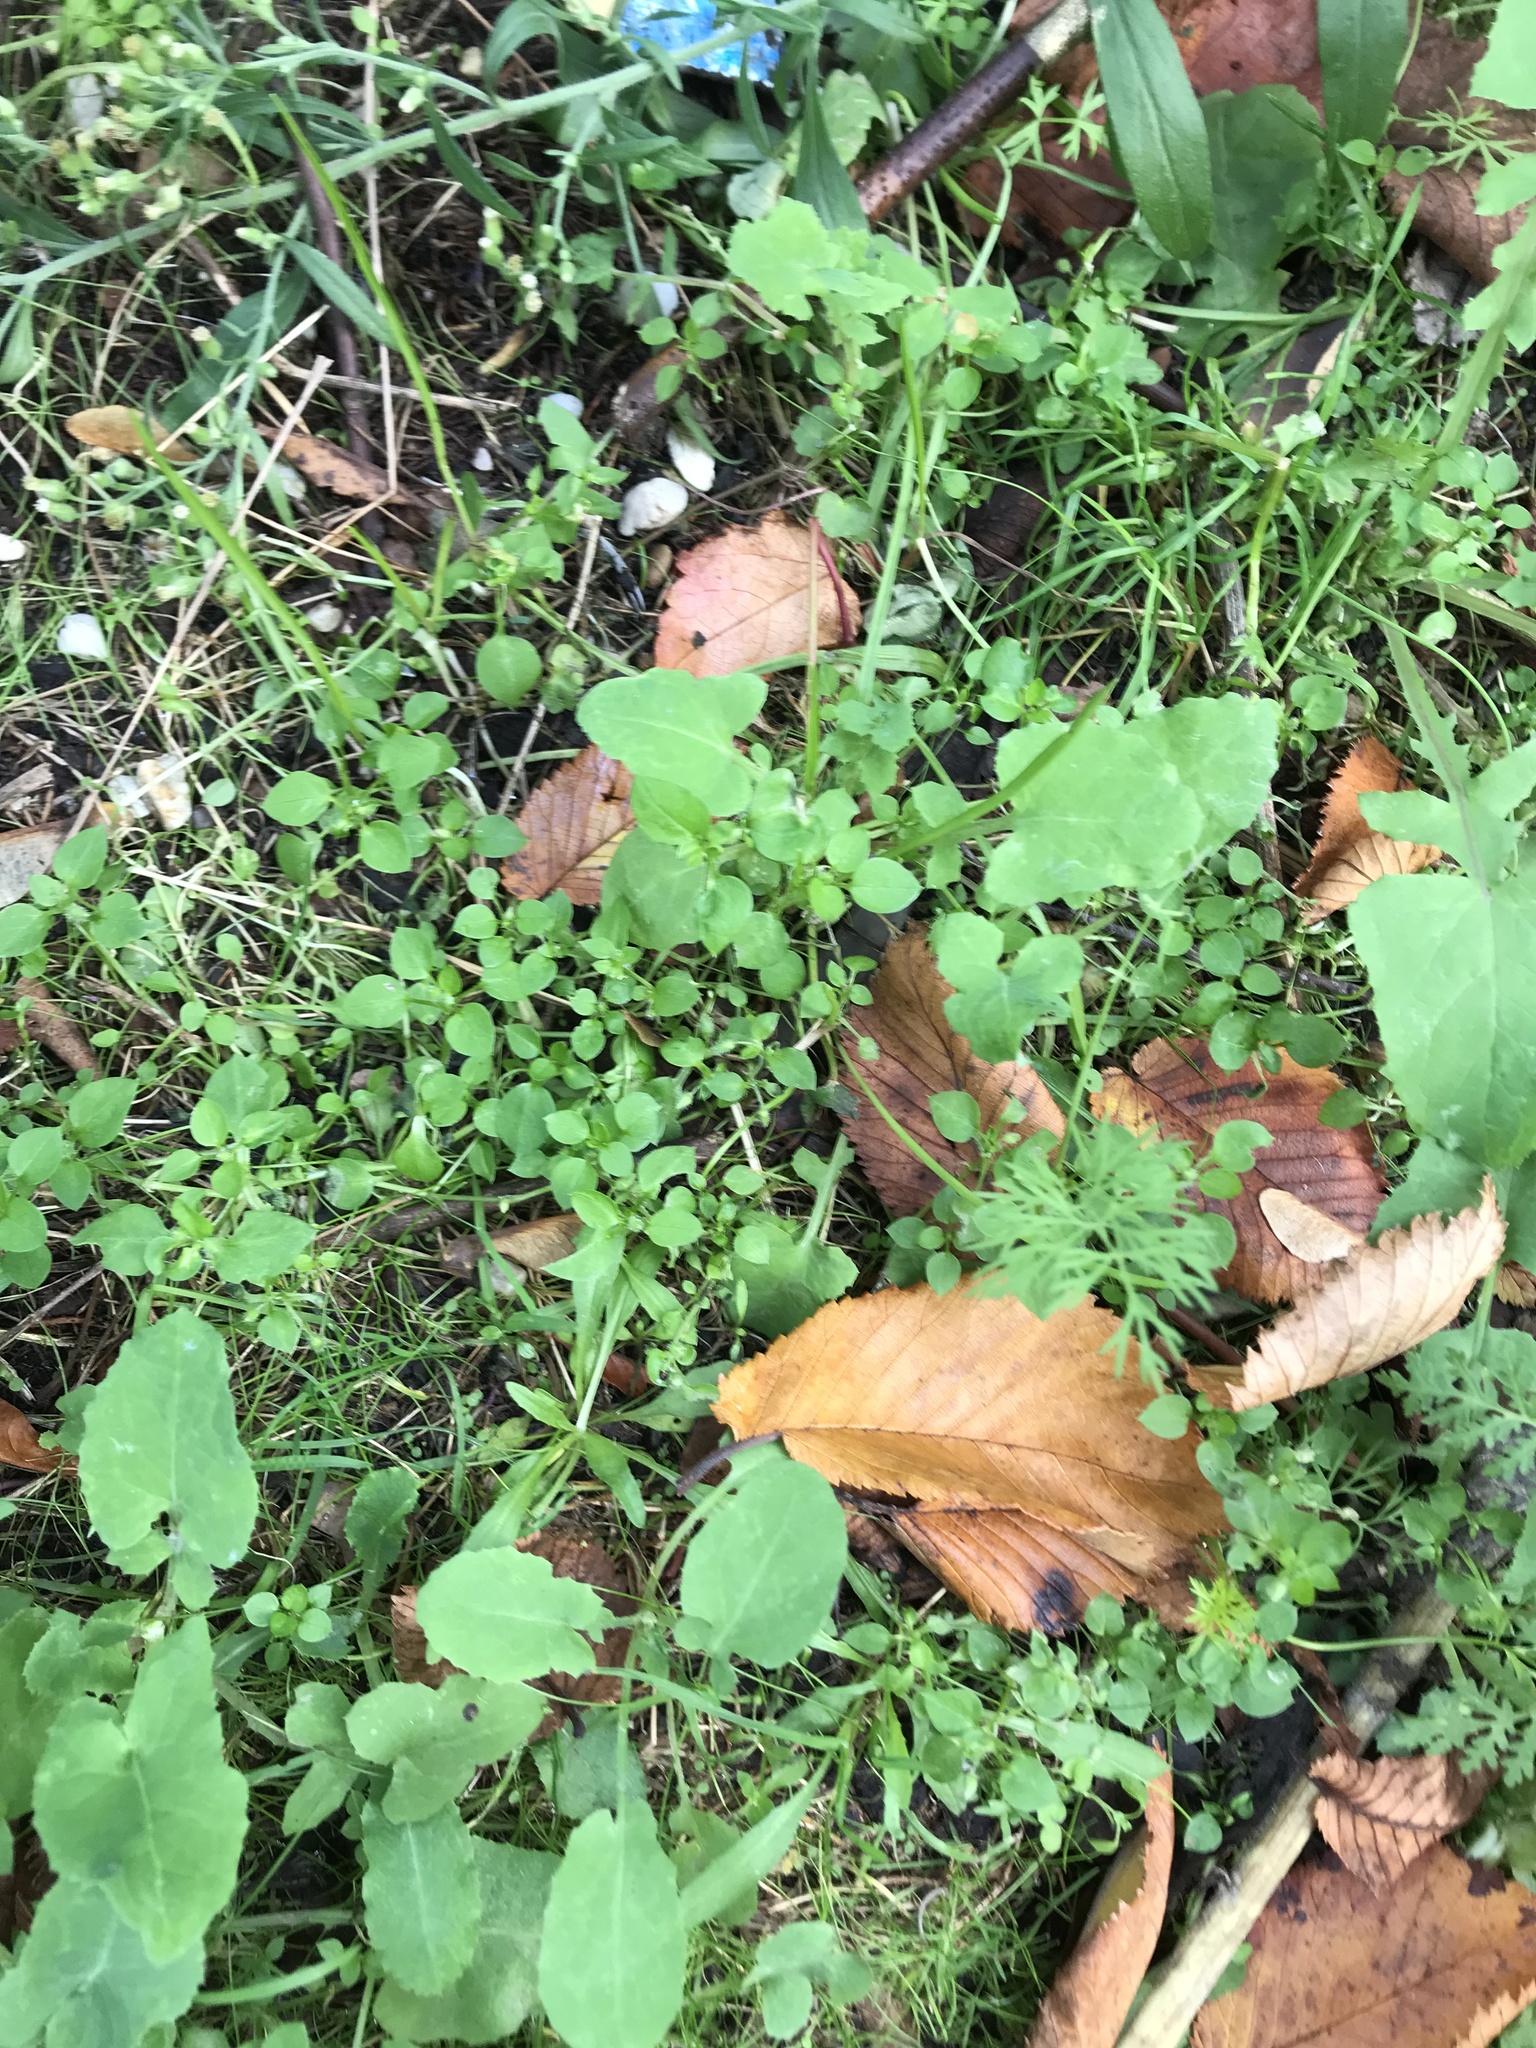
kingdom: Plantae
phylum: Tracheophyta
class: Magnoliopsida
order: Caryophyllales
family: Caryophyllaceae
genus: Stellaria
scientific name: Stellaria media
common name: Common chickweed
